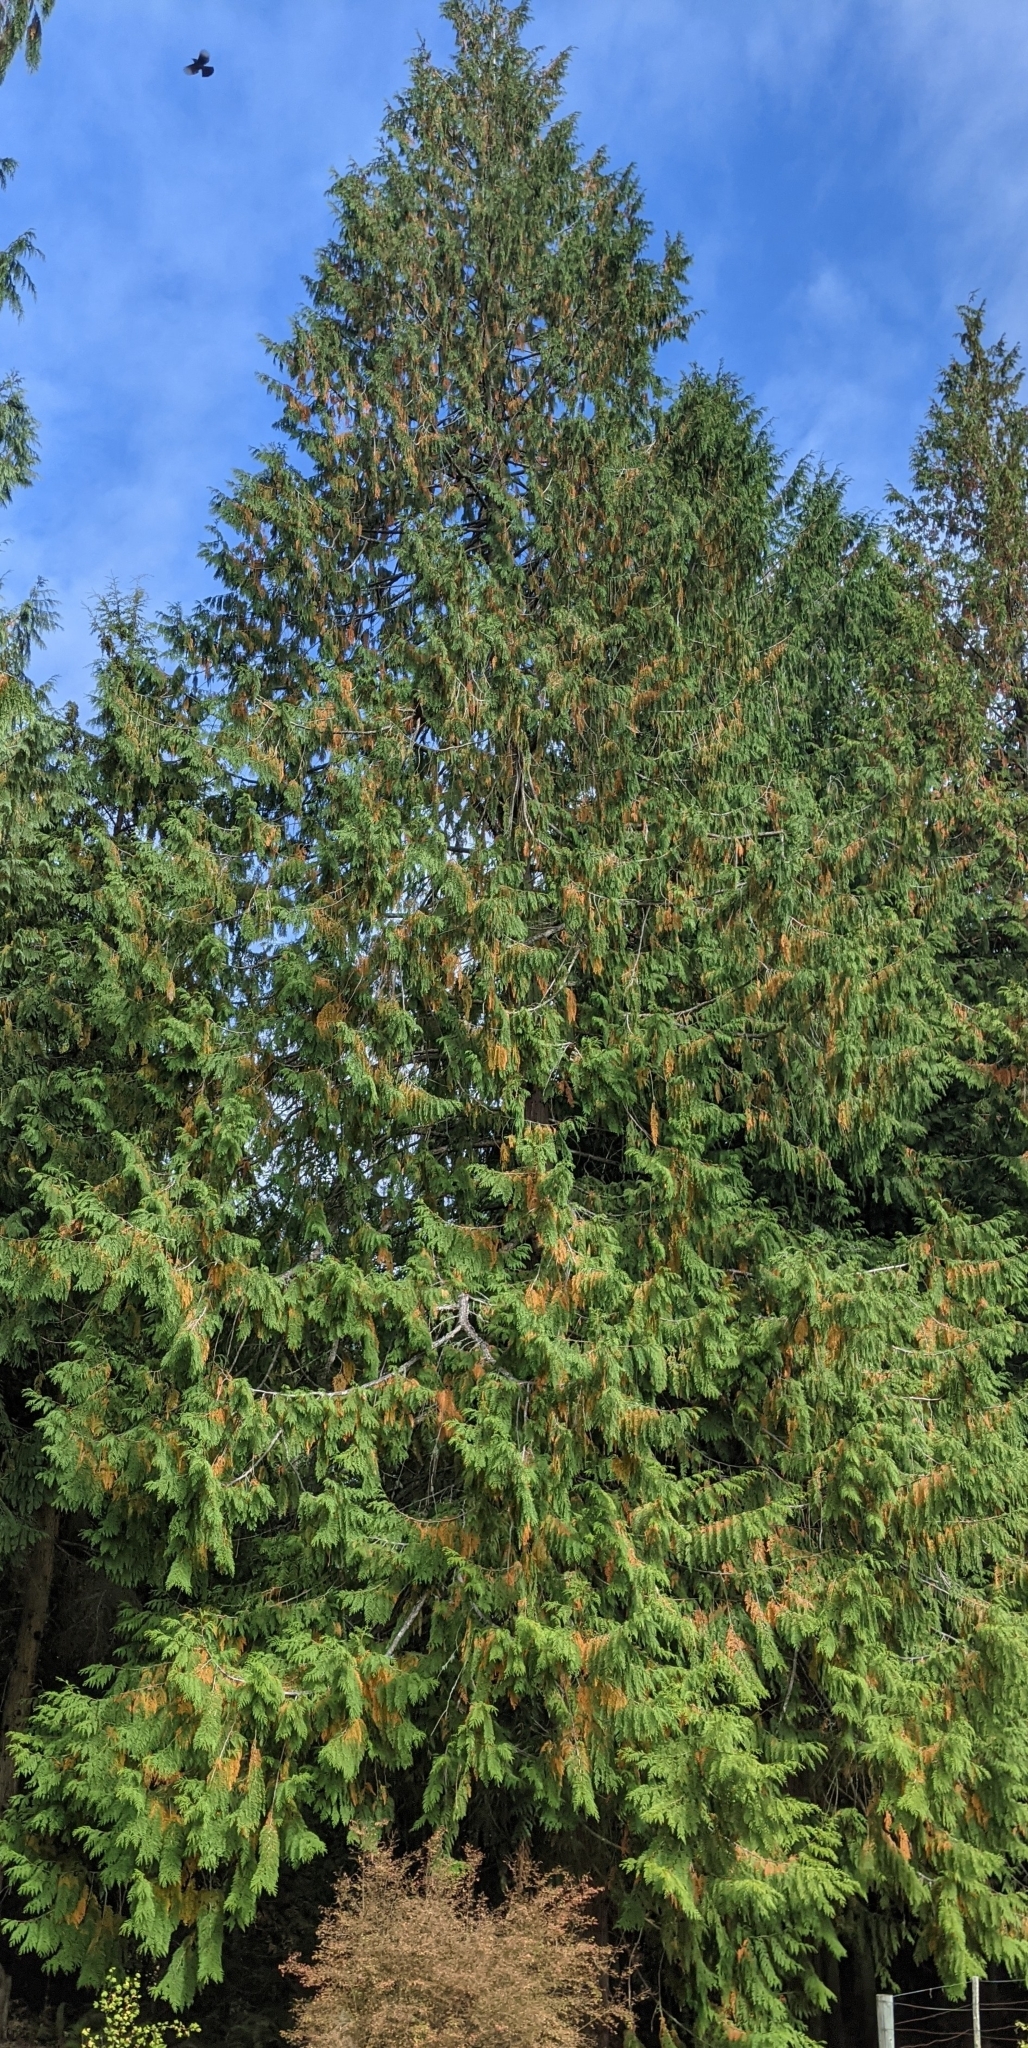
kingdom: Plantae
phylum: Tracheophyta
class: Pinopsida
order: Pinales
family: Cupressaceae
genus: Thuja
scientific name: Thuja plicata
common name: Western red-cedar
